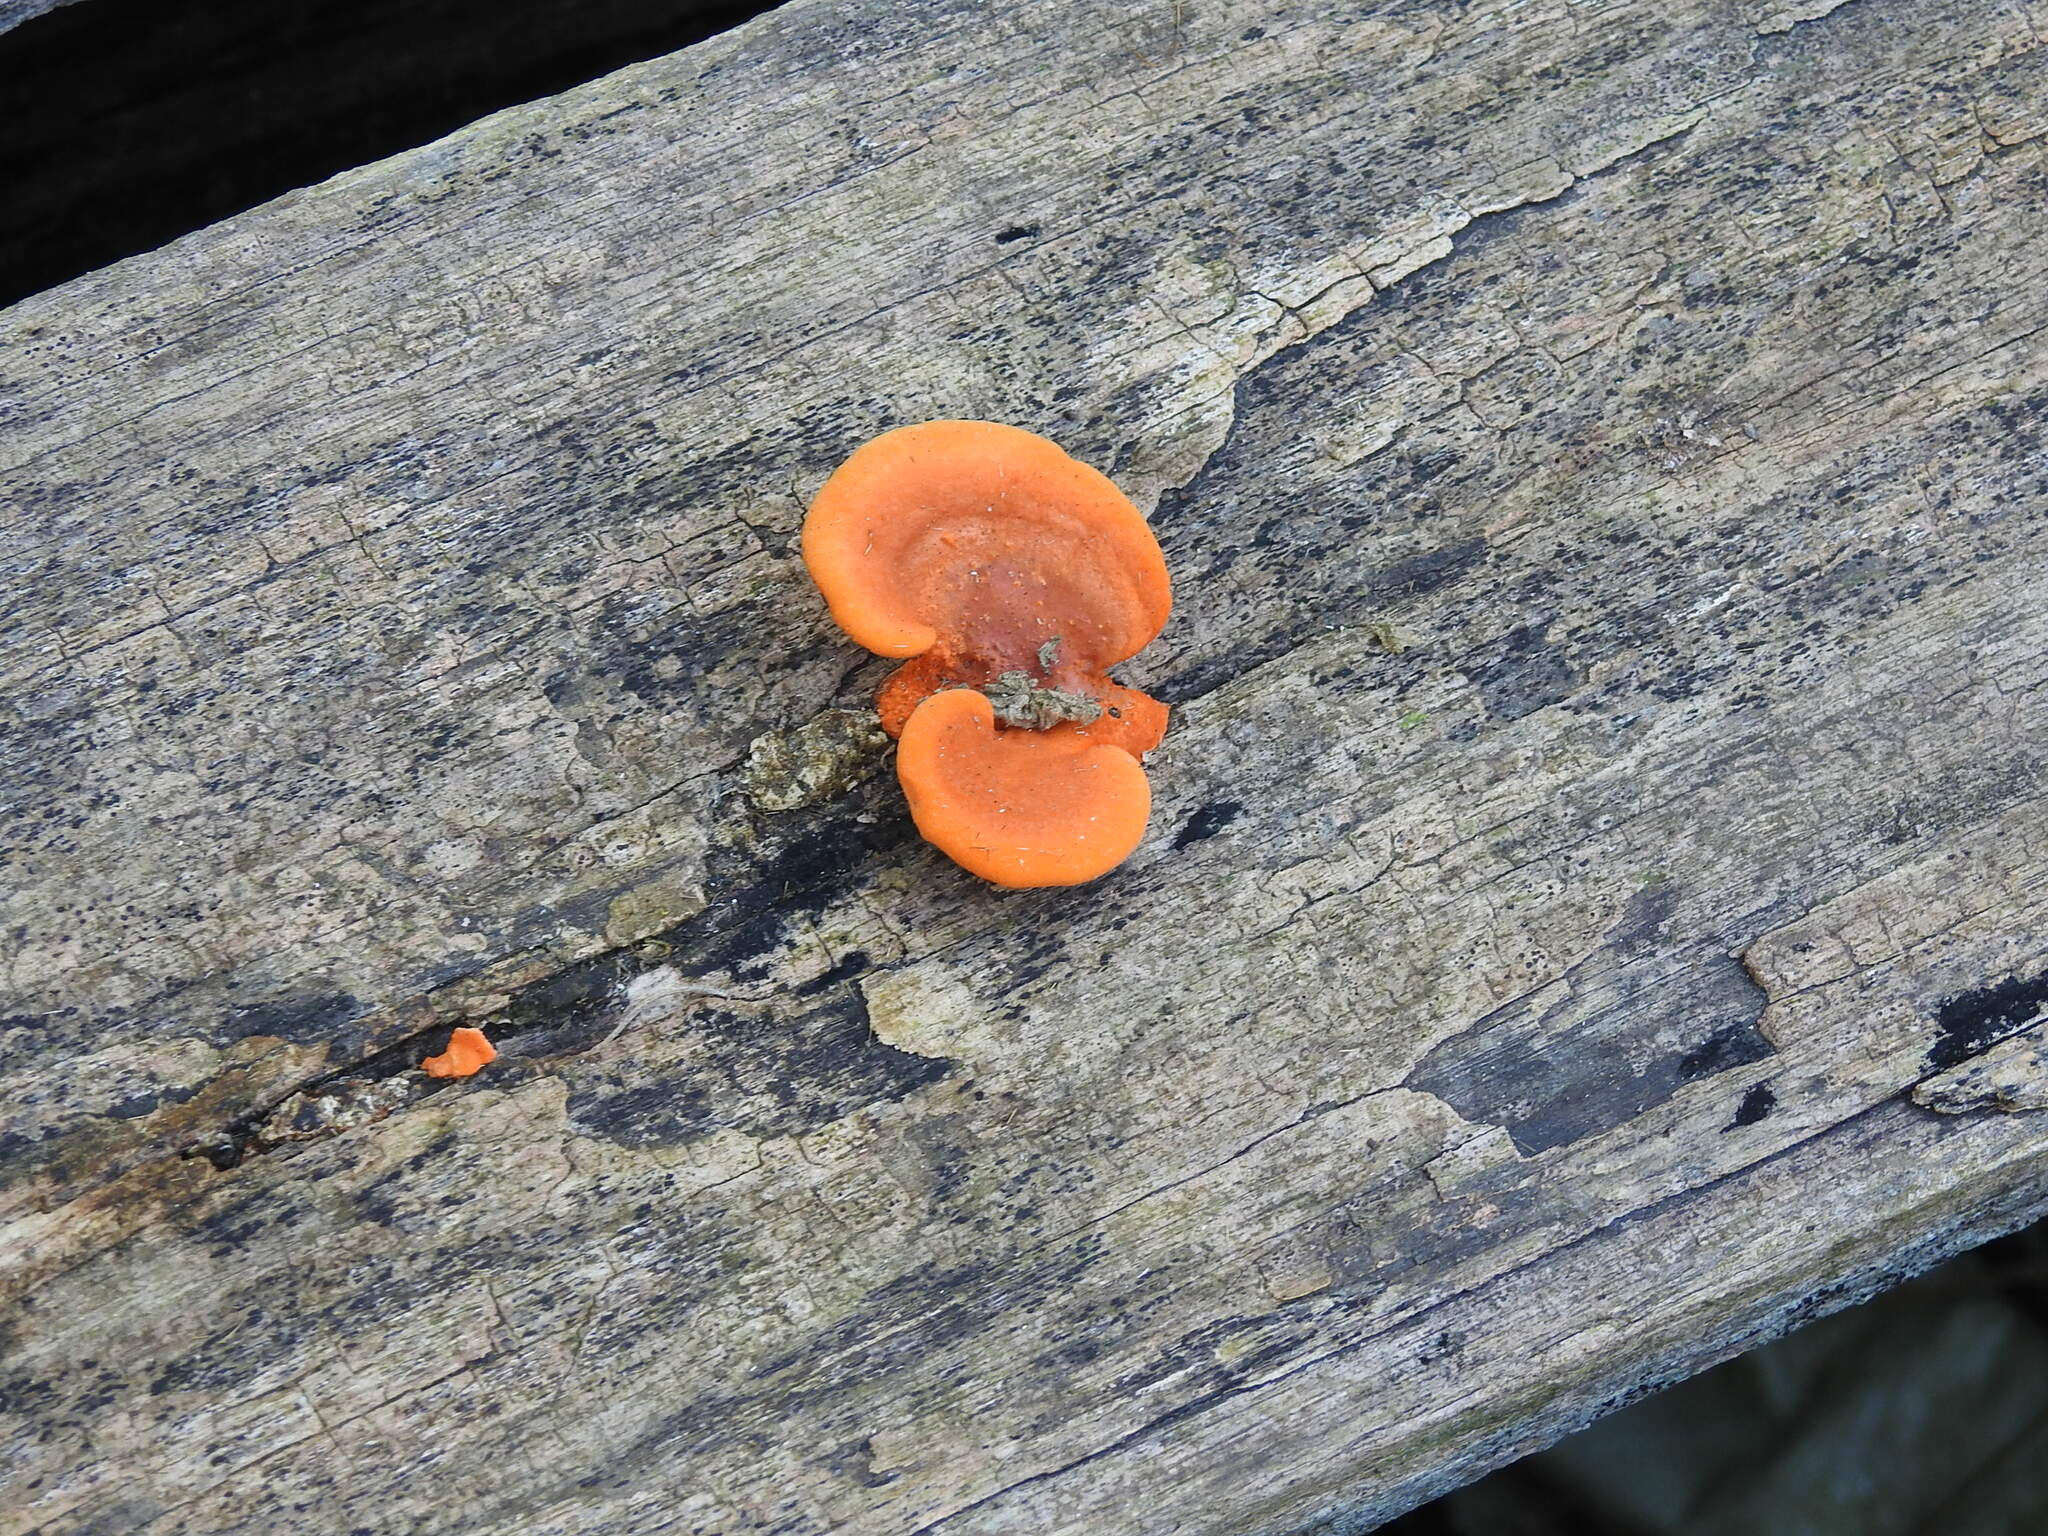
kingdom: Fungi
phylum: Basidiomycota
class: Agaricomycetes
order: Polyporales
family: Polyporaceae
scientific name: Polyporaceae
